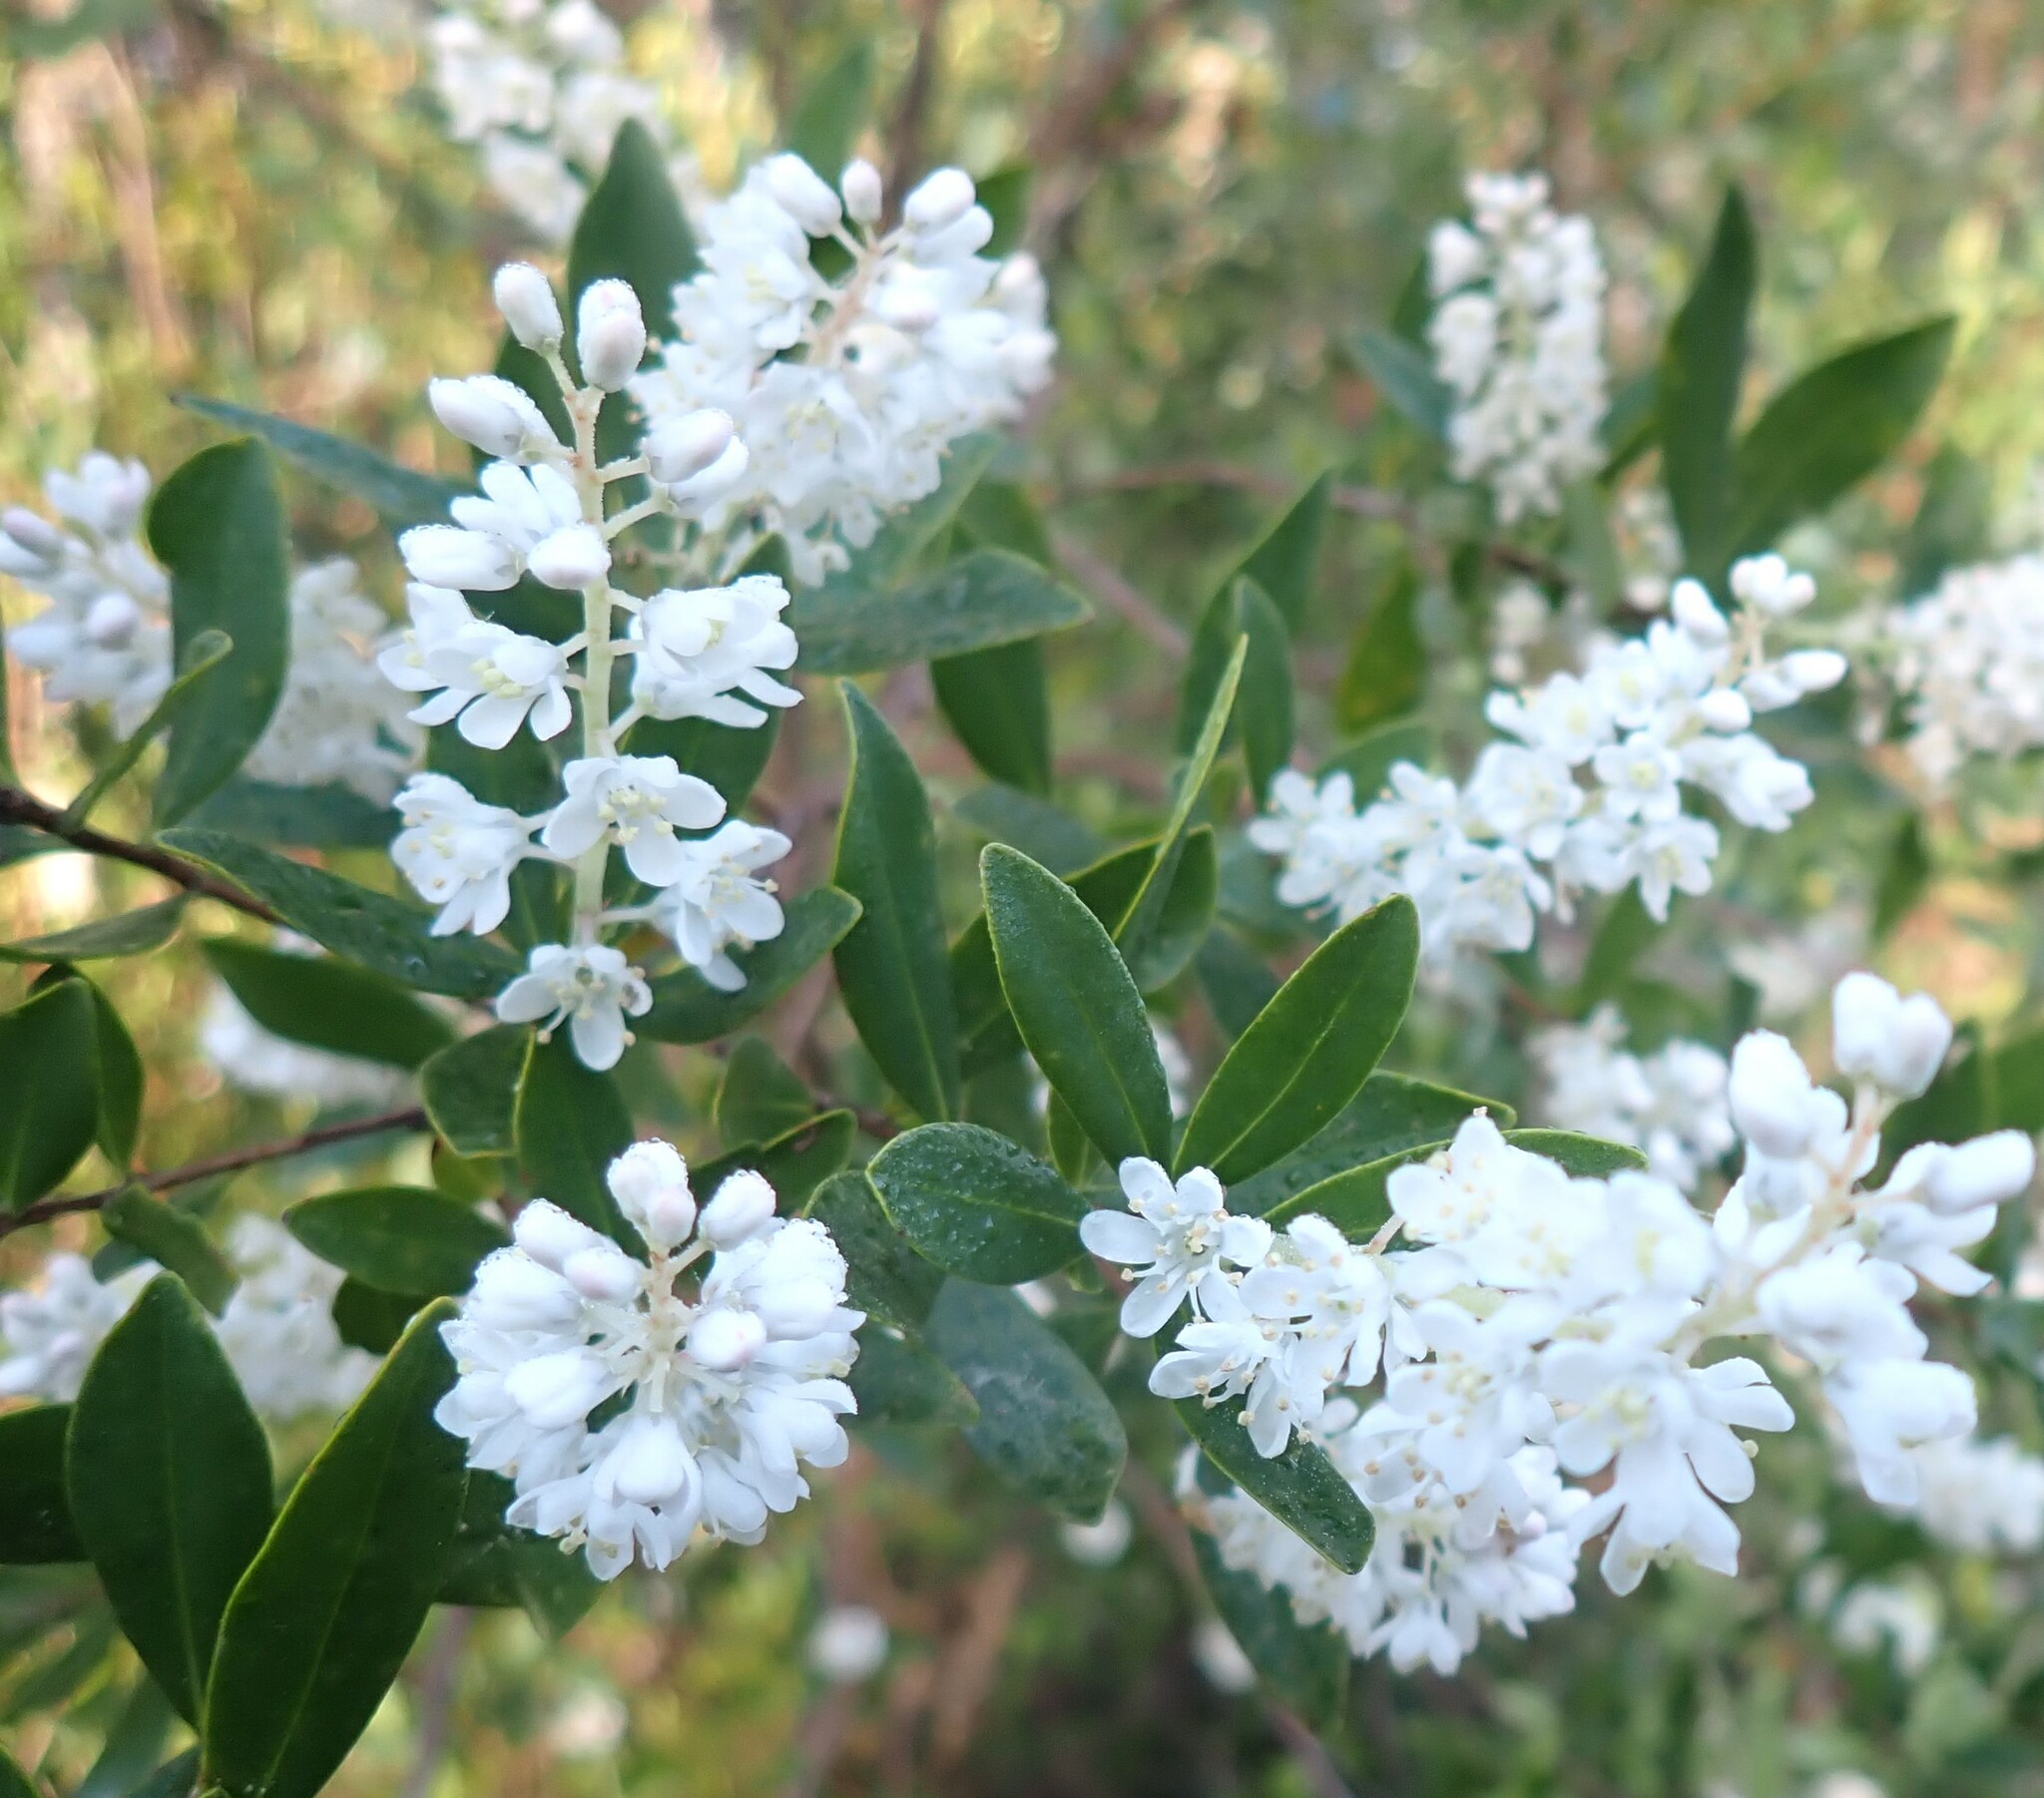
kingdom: Plantae
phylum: Tracheophyta
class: Magnoliopsida
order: Ericales
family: Cyrillaceae
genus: Cliftonia
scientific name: Cliftonia monophylla
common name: Titi
